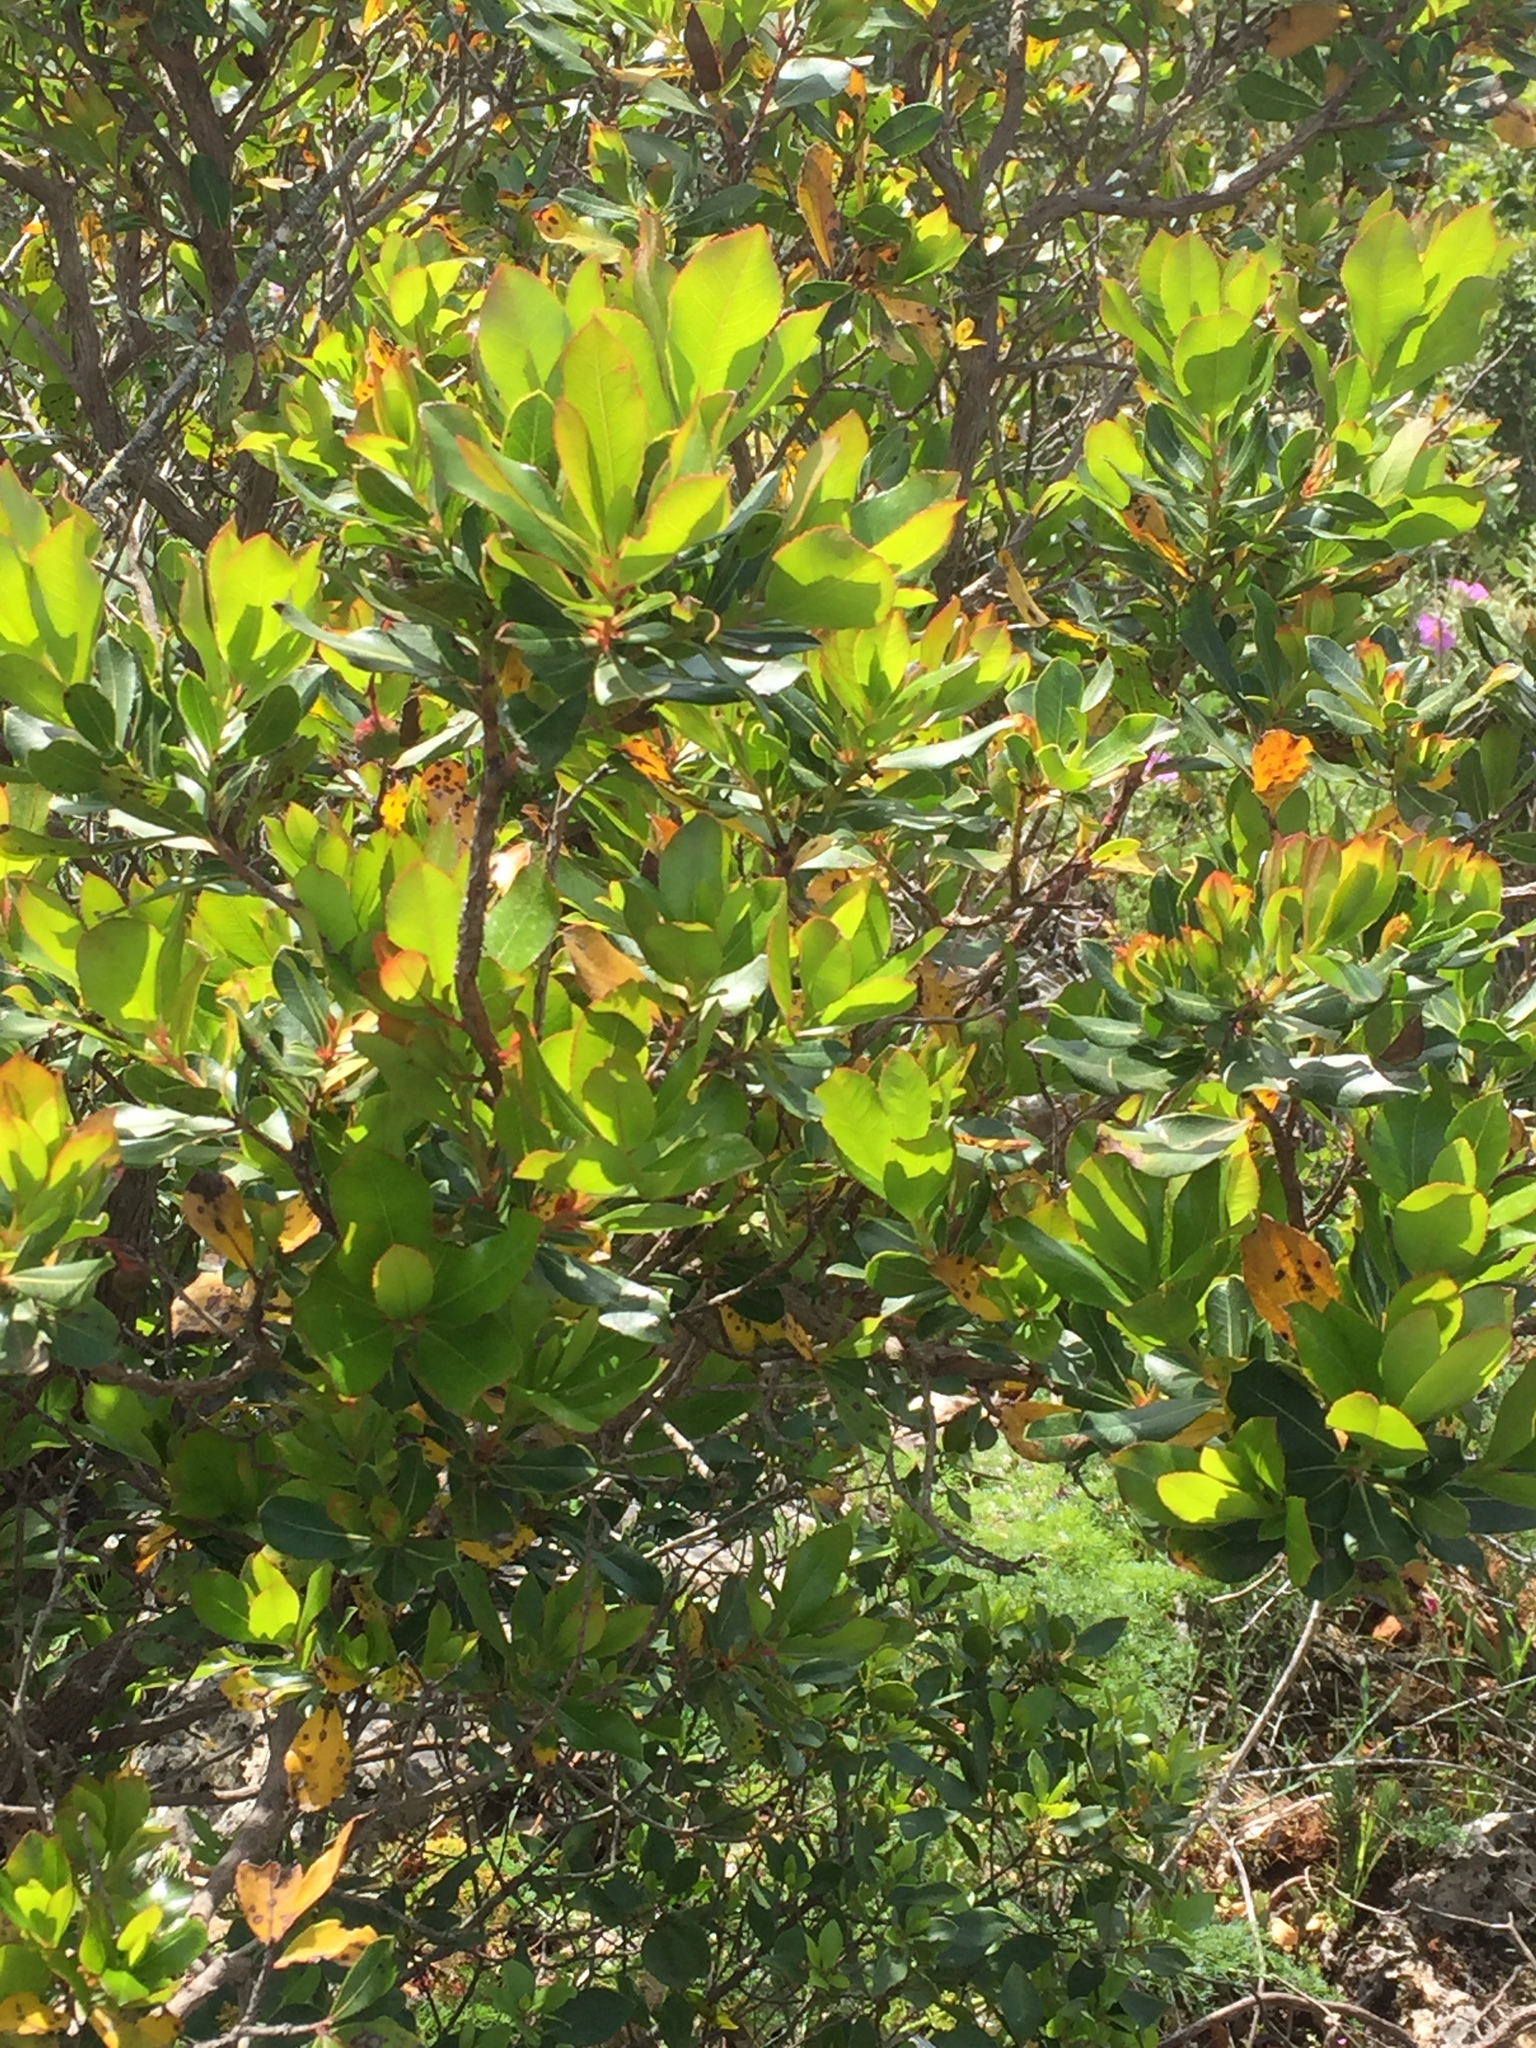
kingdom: Plantae
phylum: Tracheophyta
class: Magnoliopsida
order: Ericales
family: Ericaceae
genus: Arbutus
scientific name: Arbutus unedo
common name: Strawberry-tree
